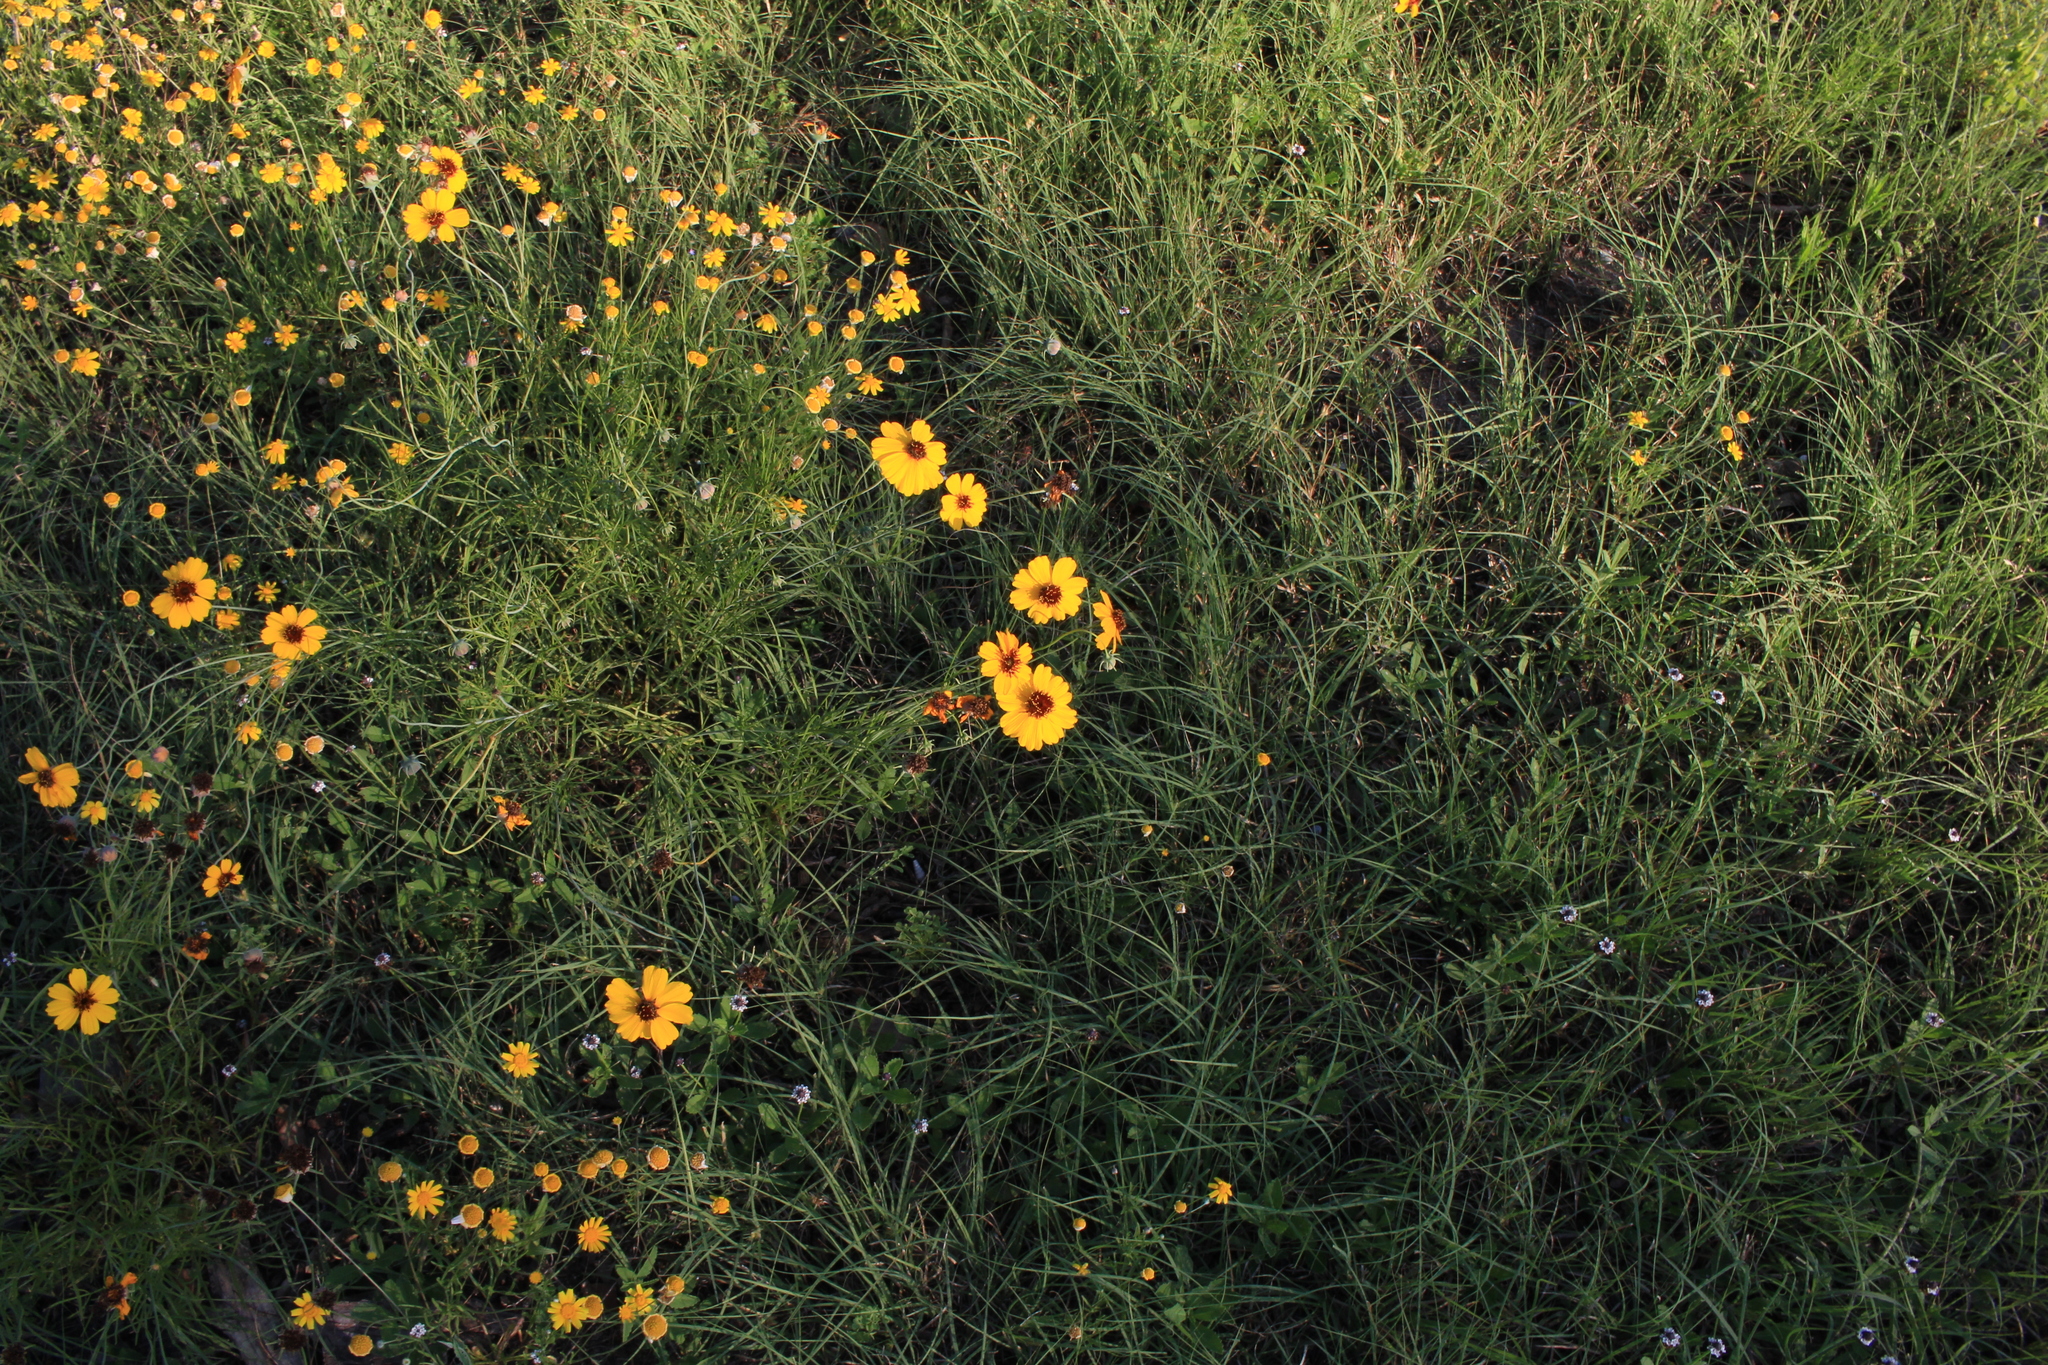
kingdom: Plantae
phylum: Tracheophyta
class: Magnoliopsida
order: Asterales
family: Asteraceae
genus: Thelesperma
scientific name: Thelesperma filifolium
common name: Stiff greenthread
